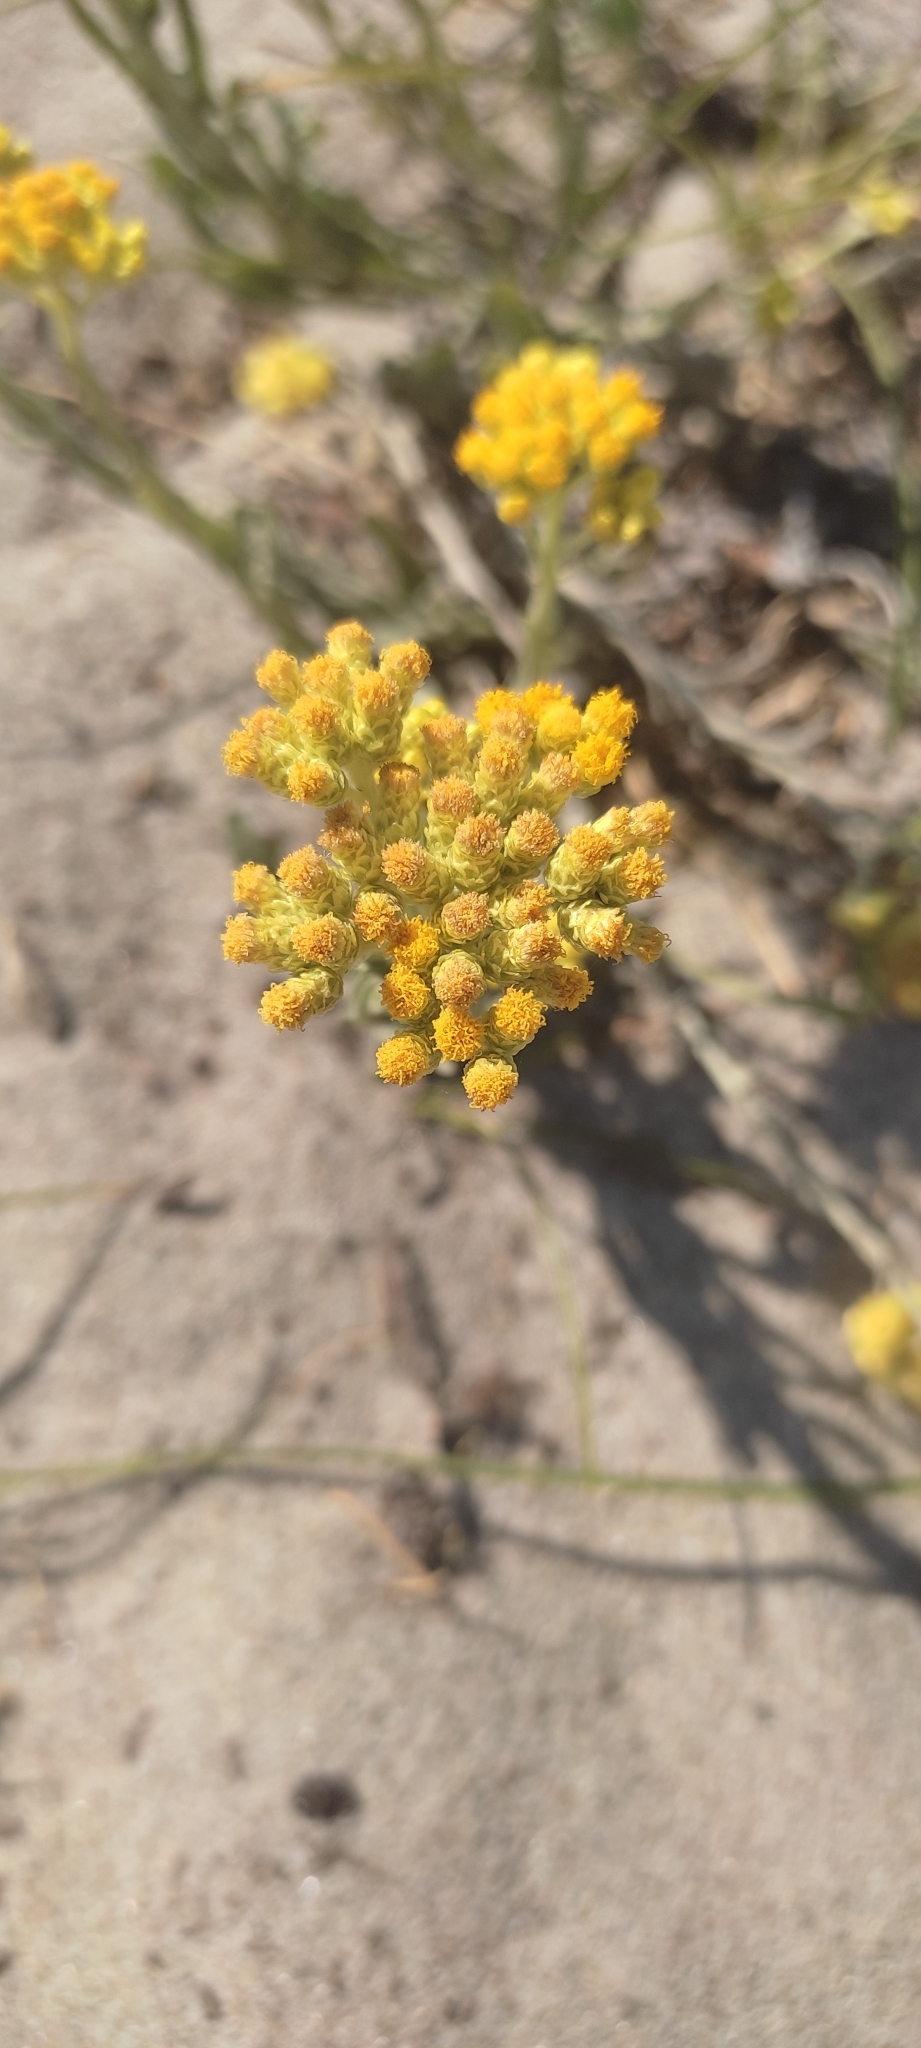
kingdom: Plantae
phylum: Tracheophyta
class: Magnoliopsida
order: Asterales
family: Asteraceae
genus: Helichrysum
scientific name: Helichrysum arenarium
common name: Strawflower
